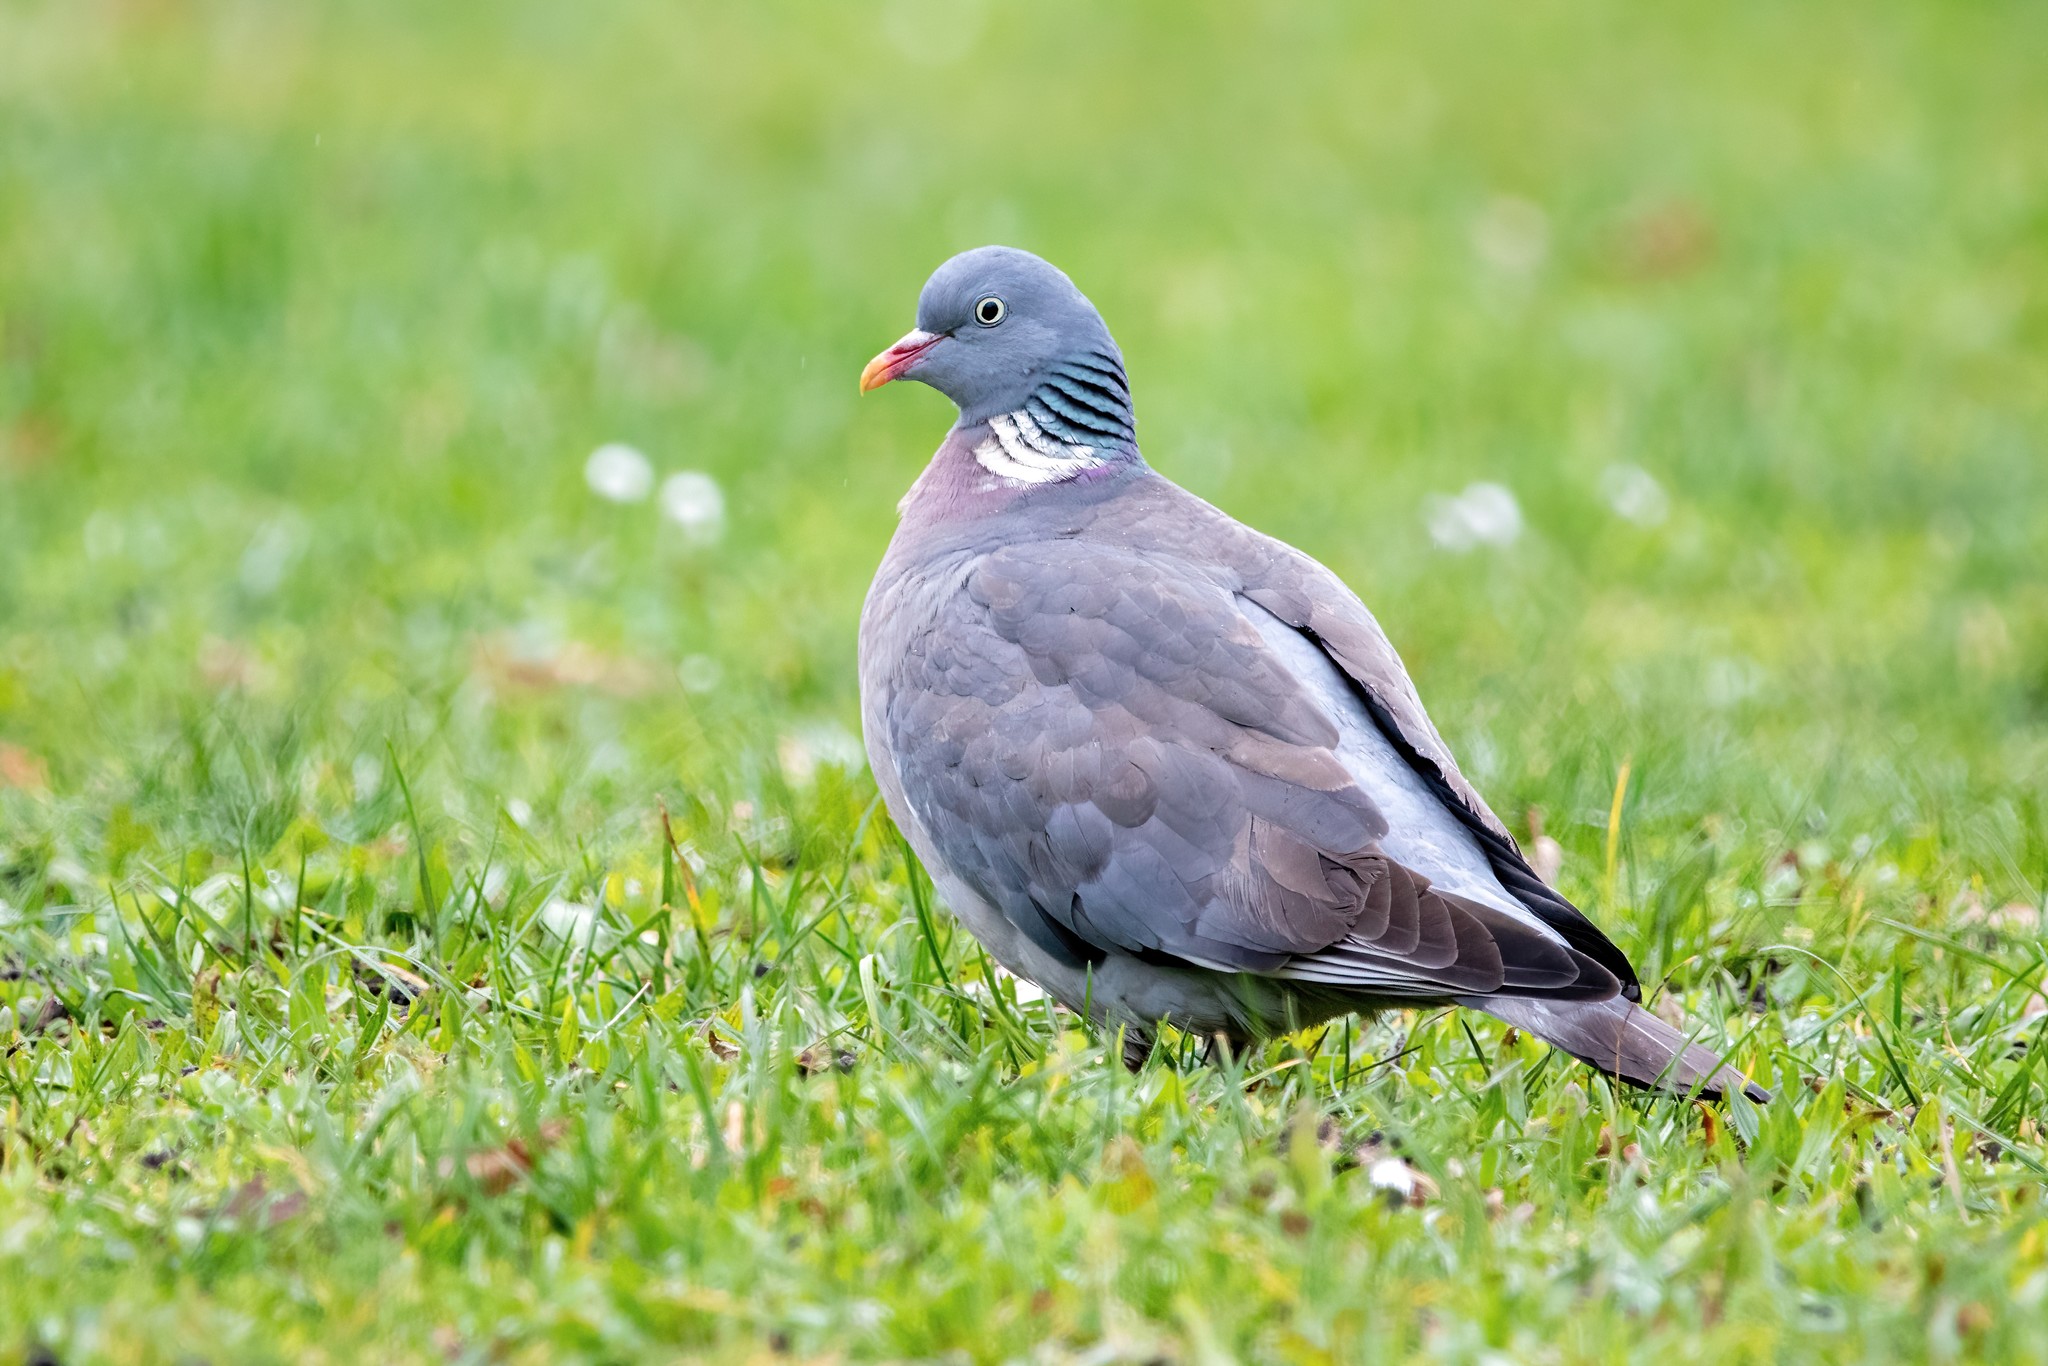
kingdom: Animalia
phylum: Chordata
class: Aves
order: Columbiformes
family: Columbidae
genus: Columba
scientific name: Columba palumbus
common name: Common wood pigeon
